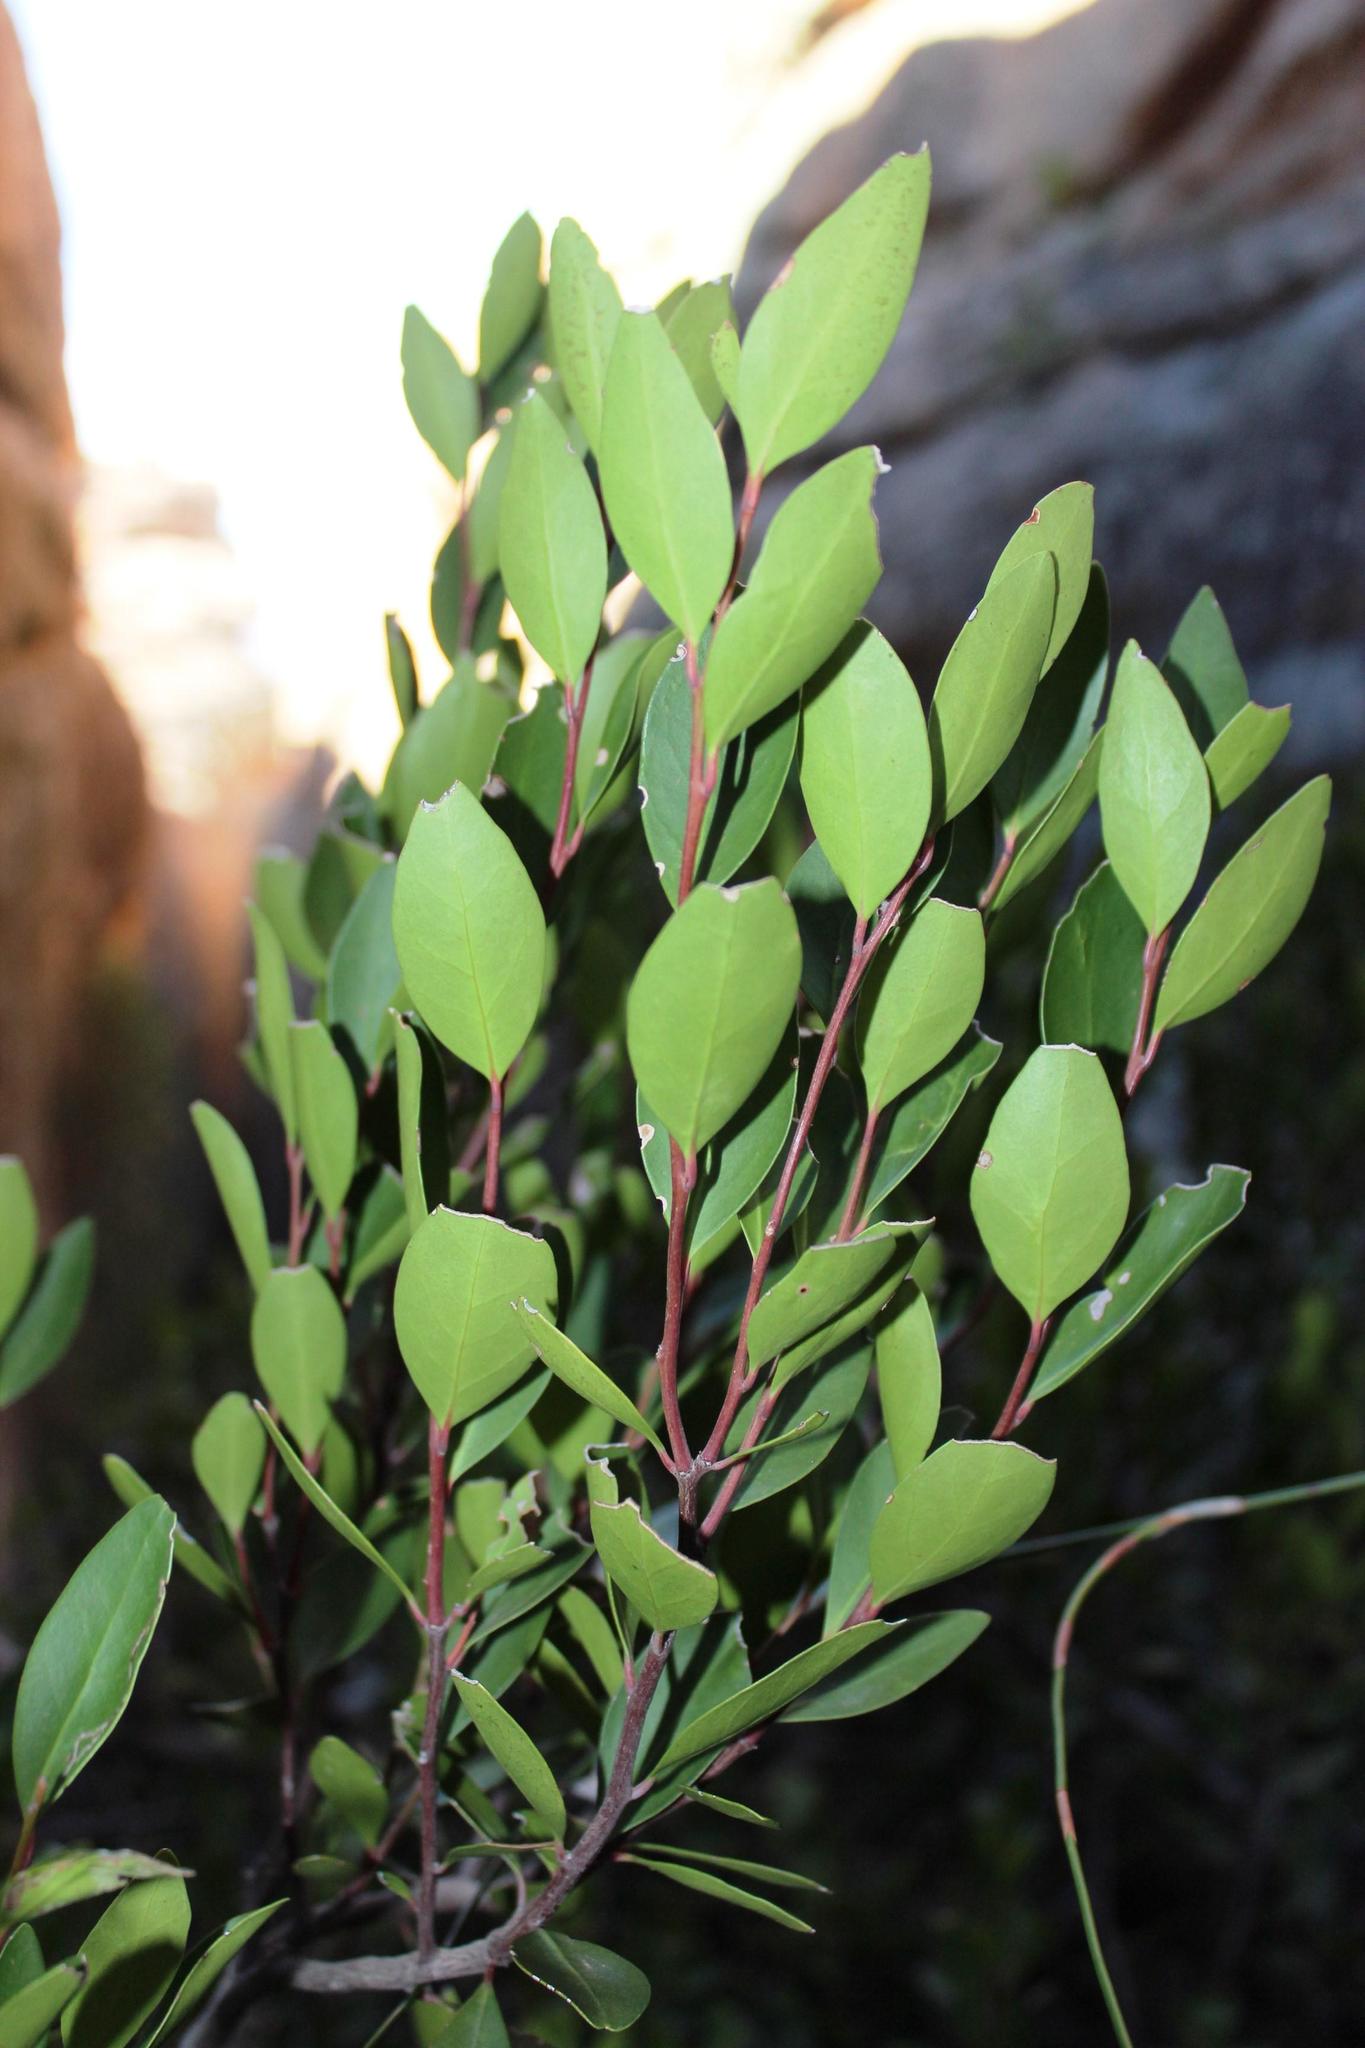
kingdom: Plantae
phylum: Tracheophyta
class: Magnoliopsida
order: Celastrales
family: Celastraceae
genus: Gymnosporia
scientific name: Gymnosporia laurina
